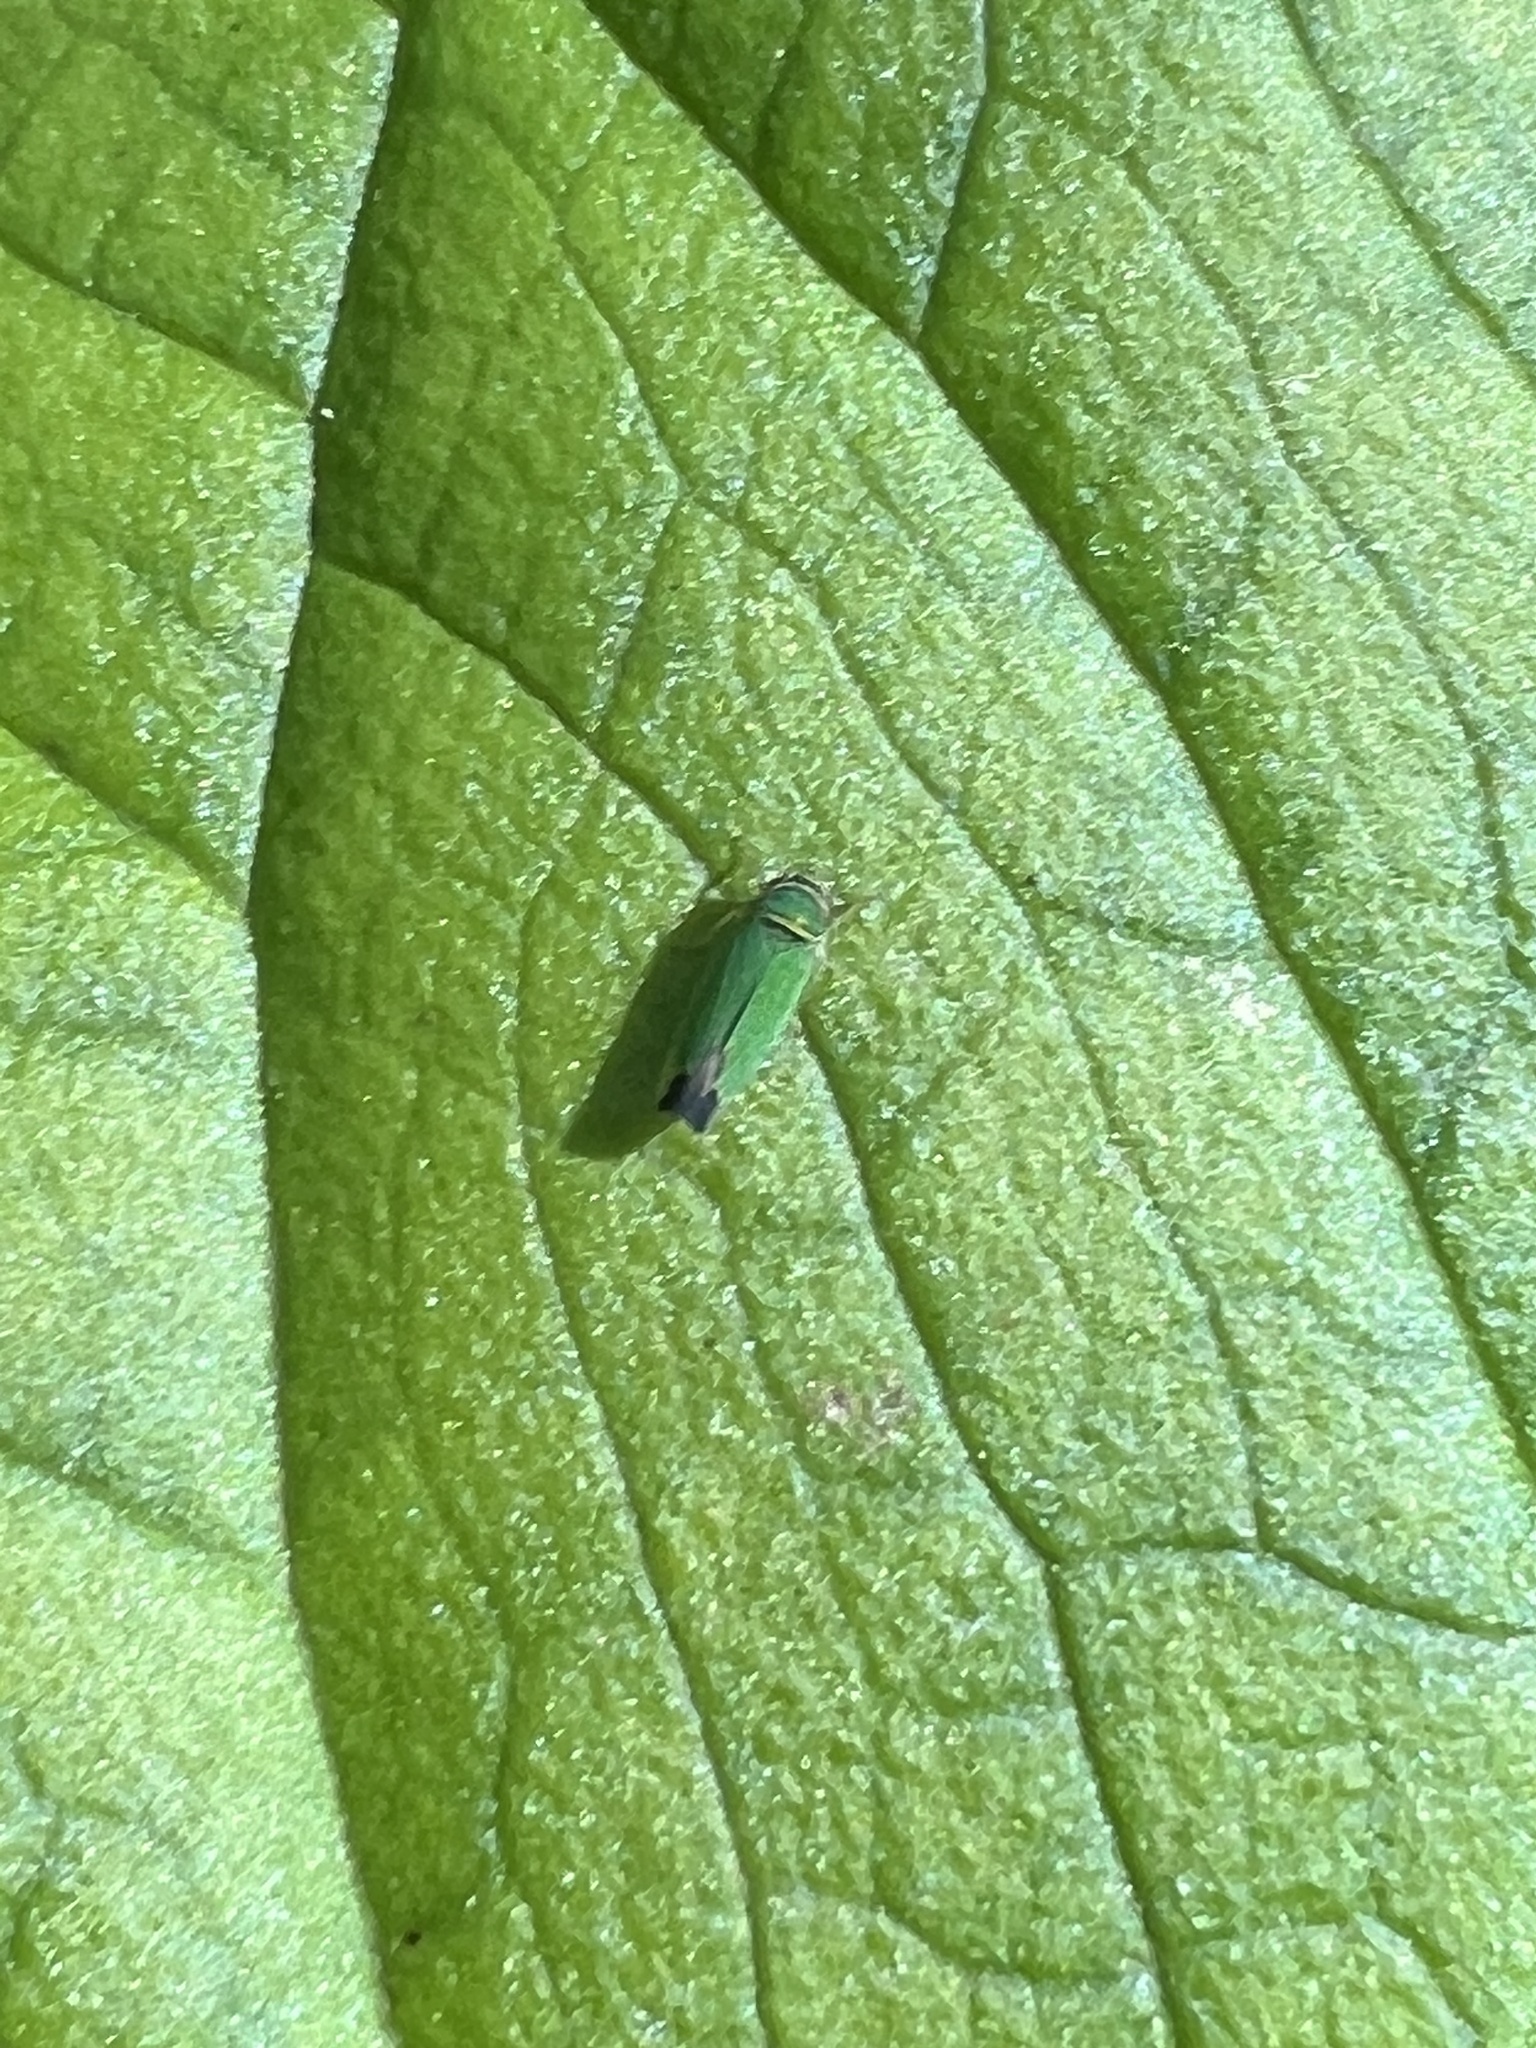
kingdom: Animalia
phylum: Arthropoda
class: Insecta
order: Hemiptera
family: Cicadellidae
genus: Tylozygus
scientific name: Tylozygus geometricus
